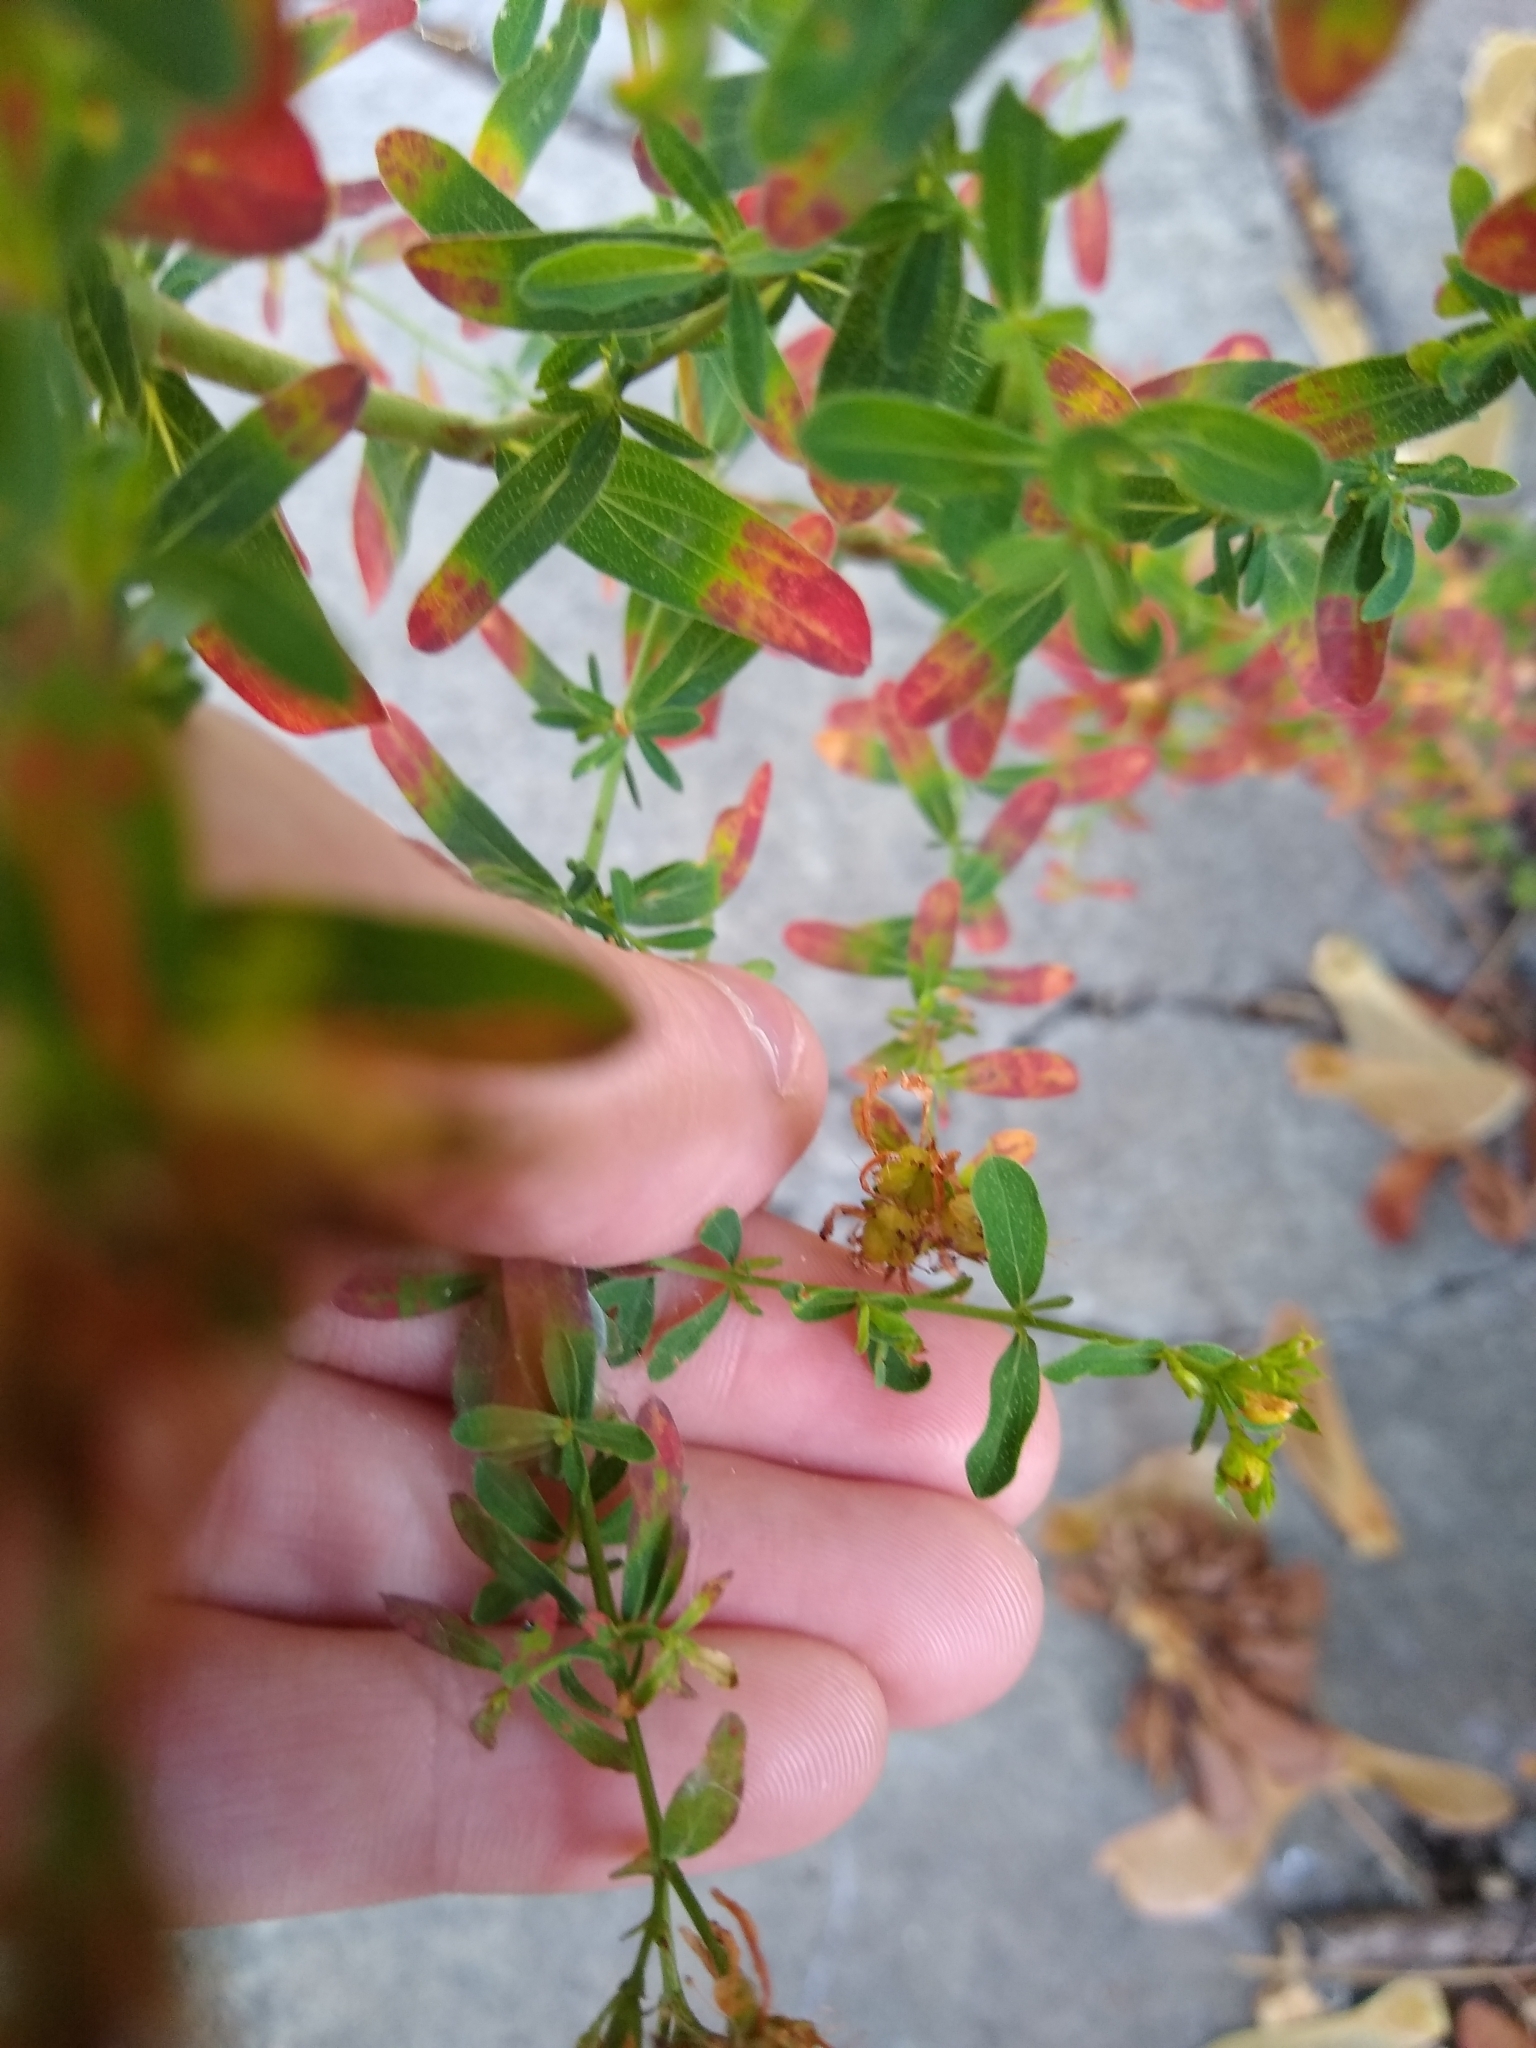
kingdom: Plantae
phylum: Tracheophyta
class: Magnoliopsida
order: Malpighiales
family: Hypericaceae
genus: Hypericum
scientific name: Hypericum perforatum
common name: Common st. johnswort
